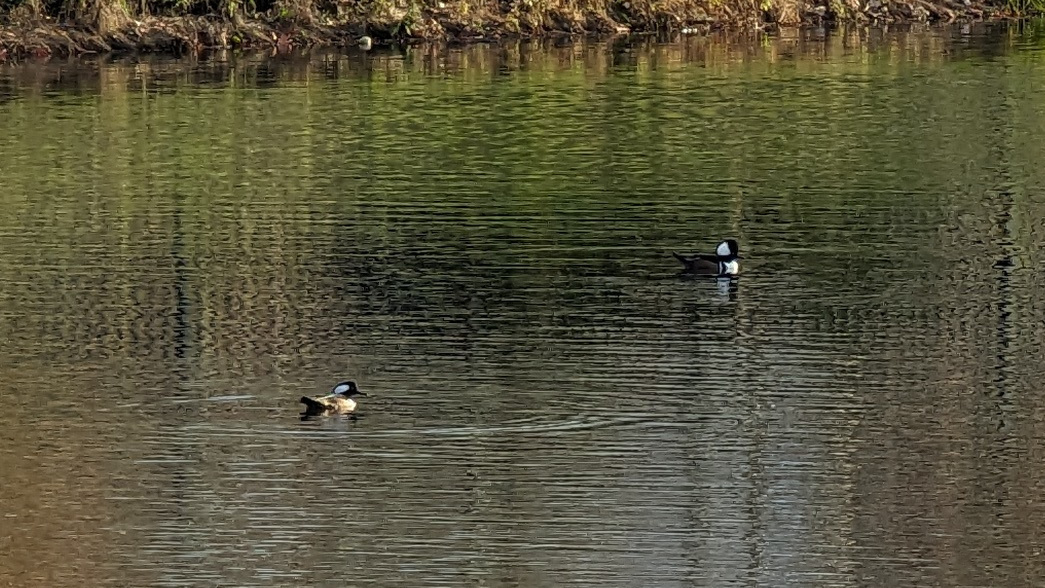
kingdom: Animalia
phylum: Chordata
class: Aves
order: Anseriformes
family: Anatidae
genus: Lophodytes
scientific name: Lophodytes cucullatus
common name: Hooded merganser
